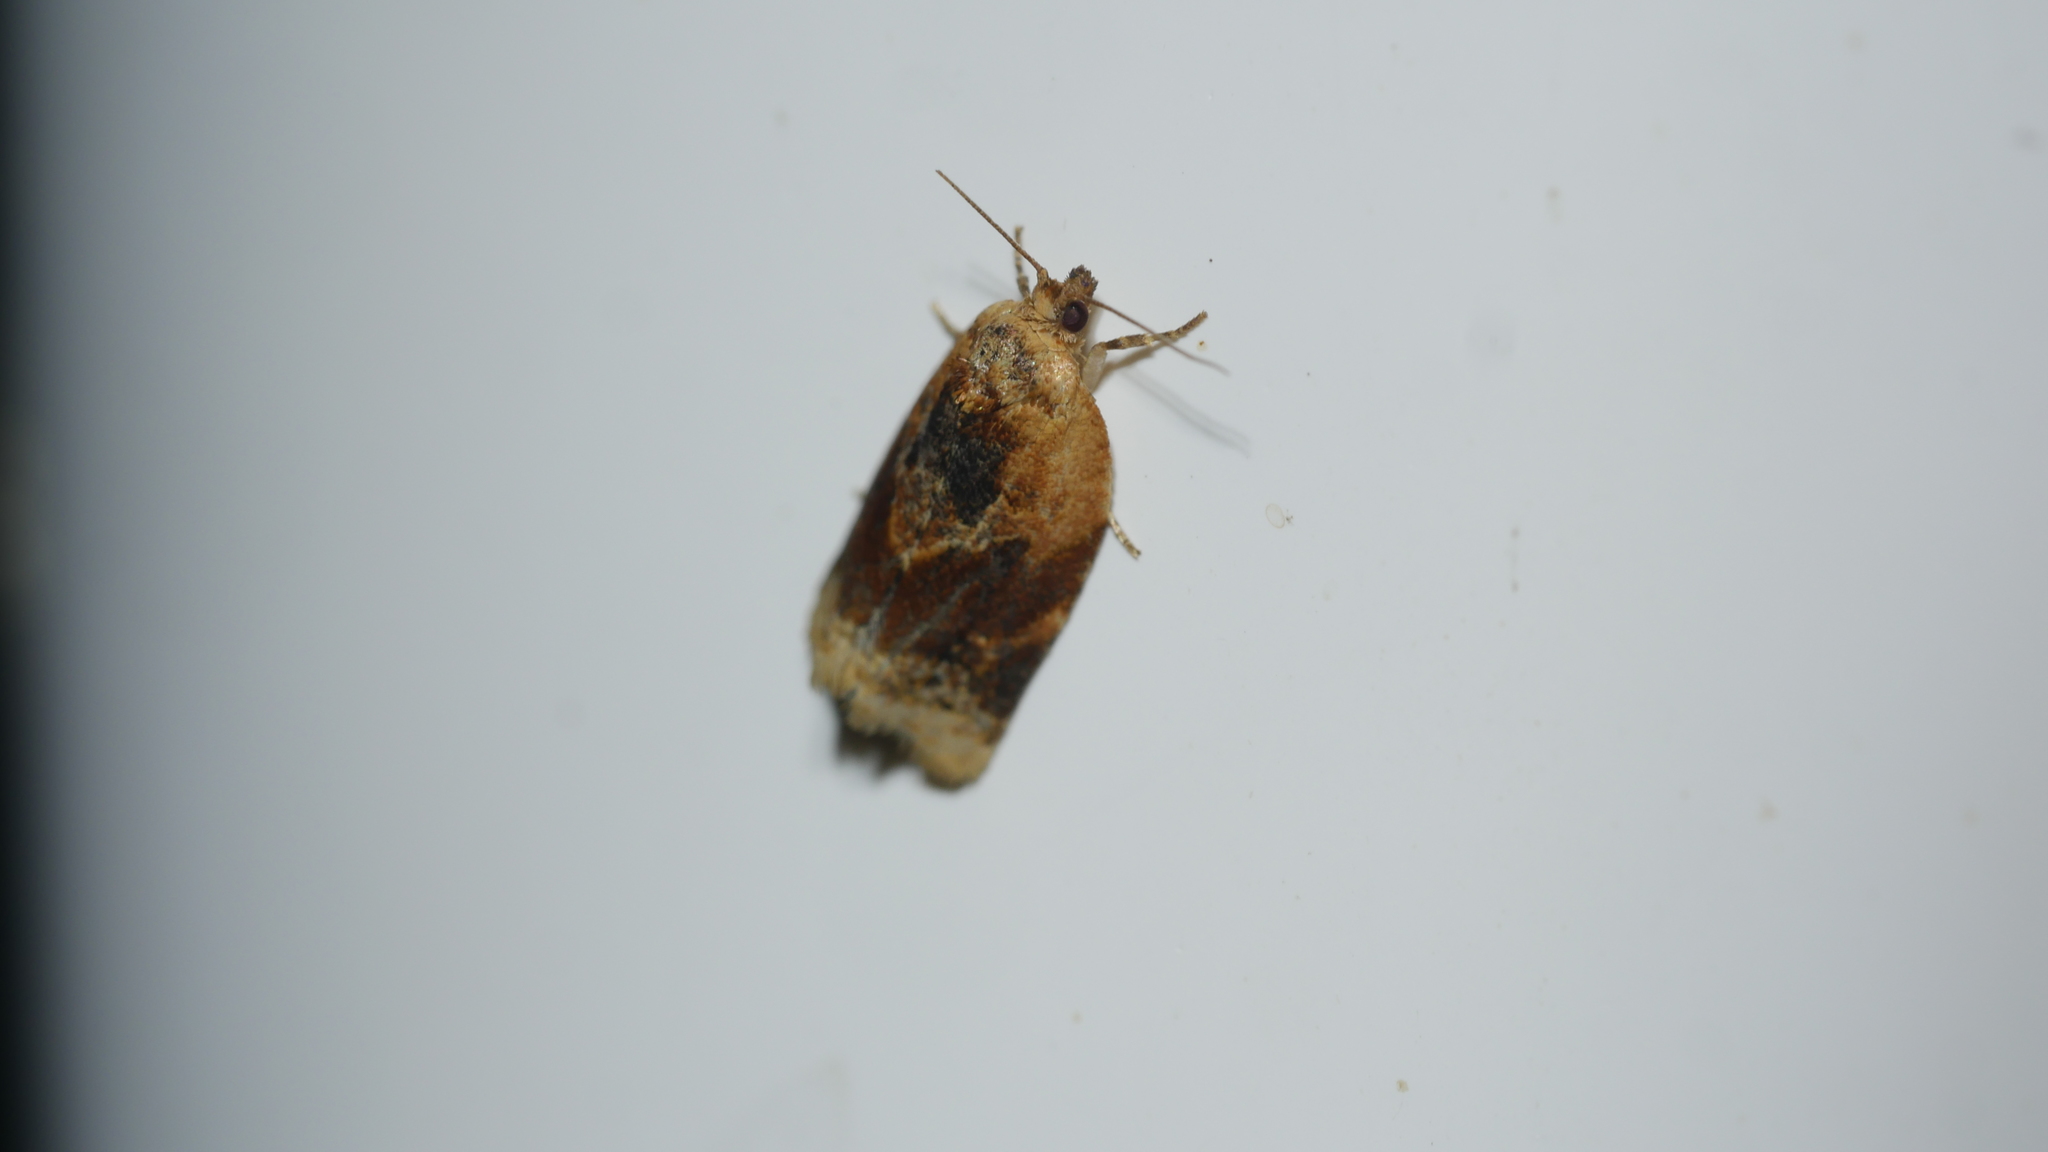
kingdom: Animalia
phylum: Arthropoda
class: Insecta
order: Lepidoptera
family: Tortricidae
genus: Argyrotaenia
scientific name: Argyrotaenia velutinana
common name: Red-banded leafroller moth
